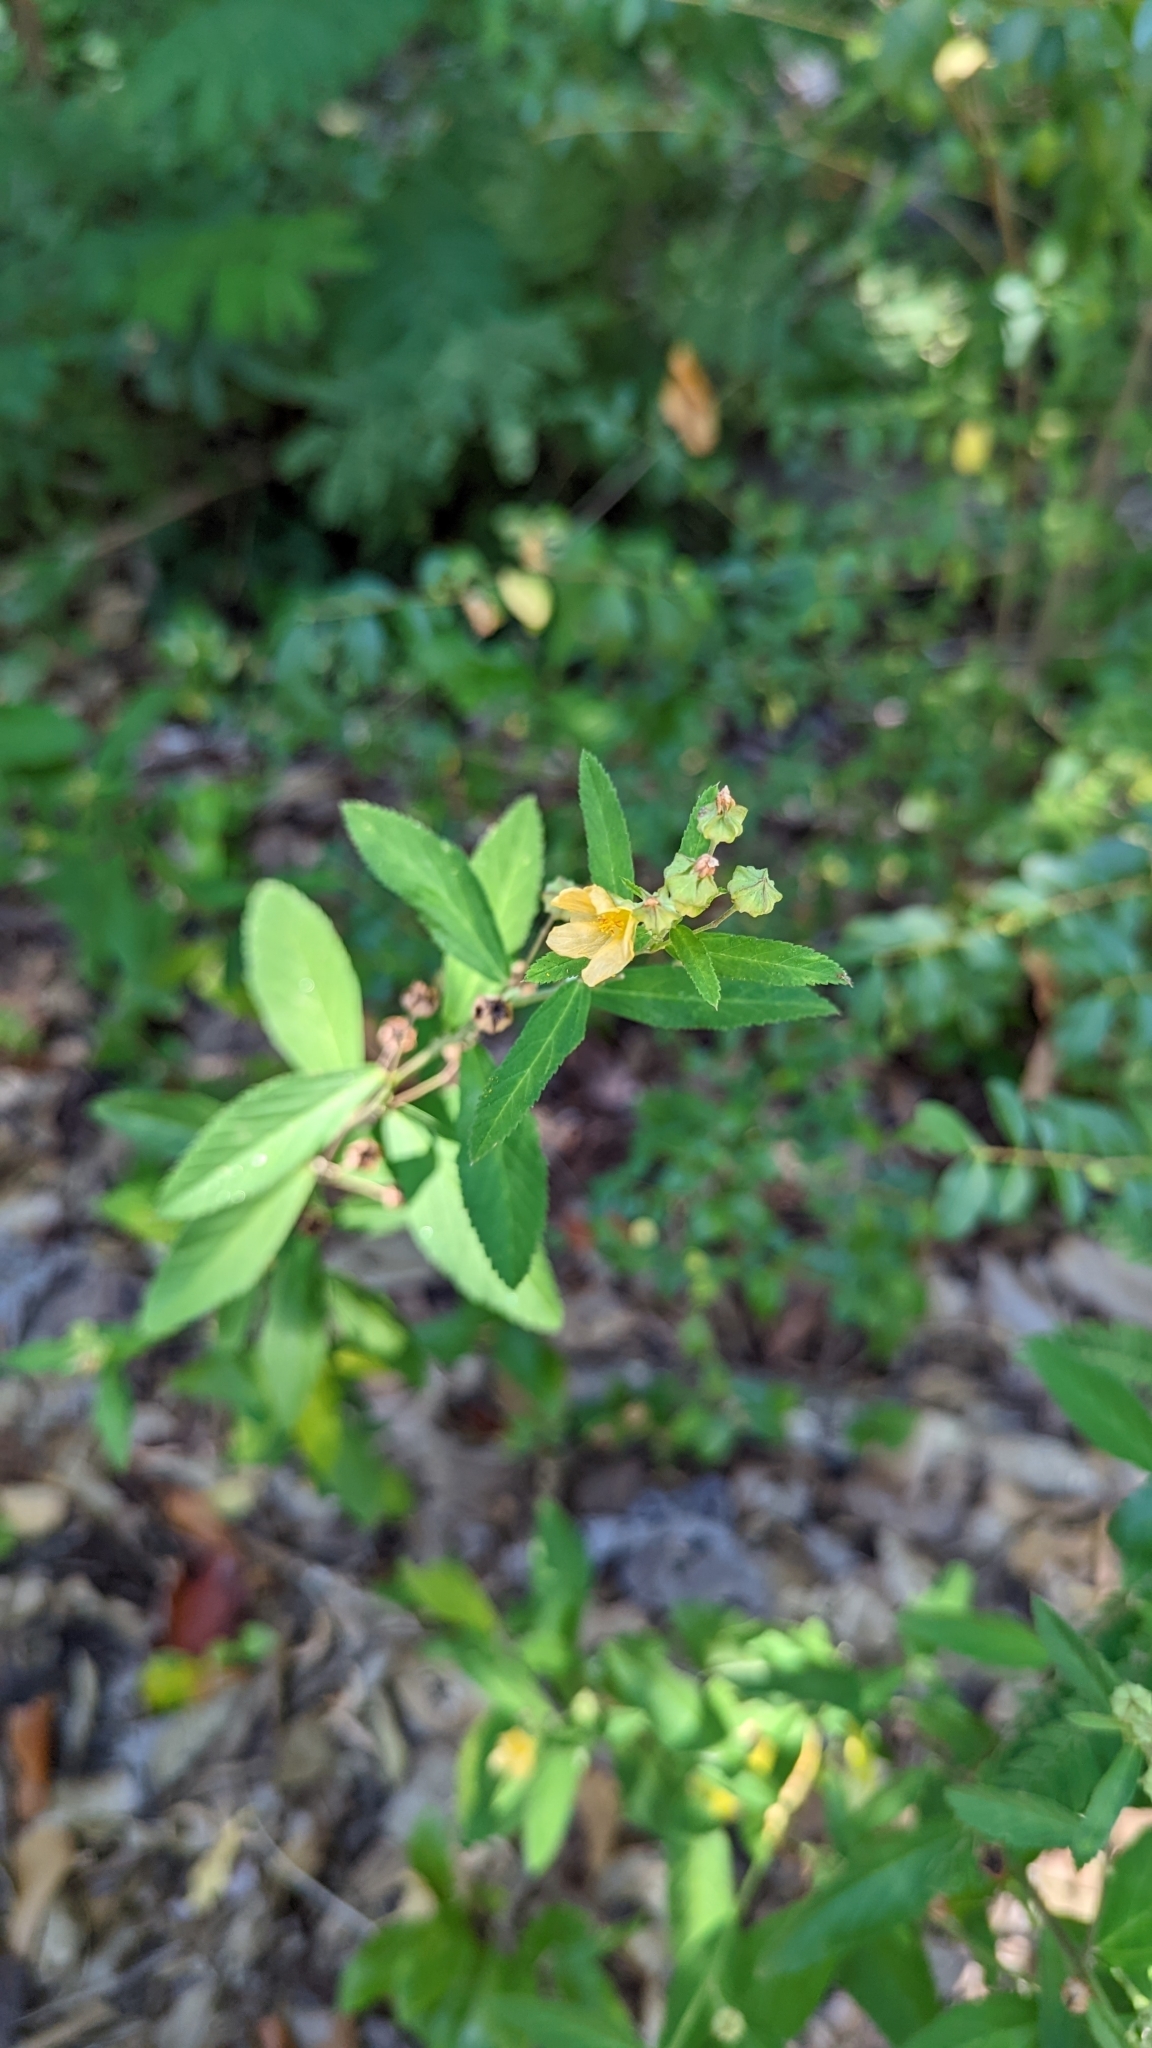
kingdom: Plantae
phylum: Tracheophyta
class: Magnoliopsida
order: Malvales
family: Malvaceae
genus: Sida
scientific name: Sida rhombifolia
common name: Queensland-hemp
